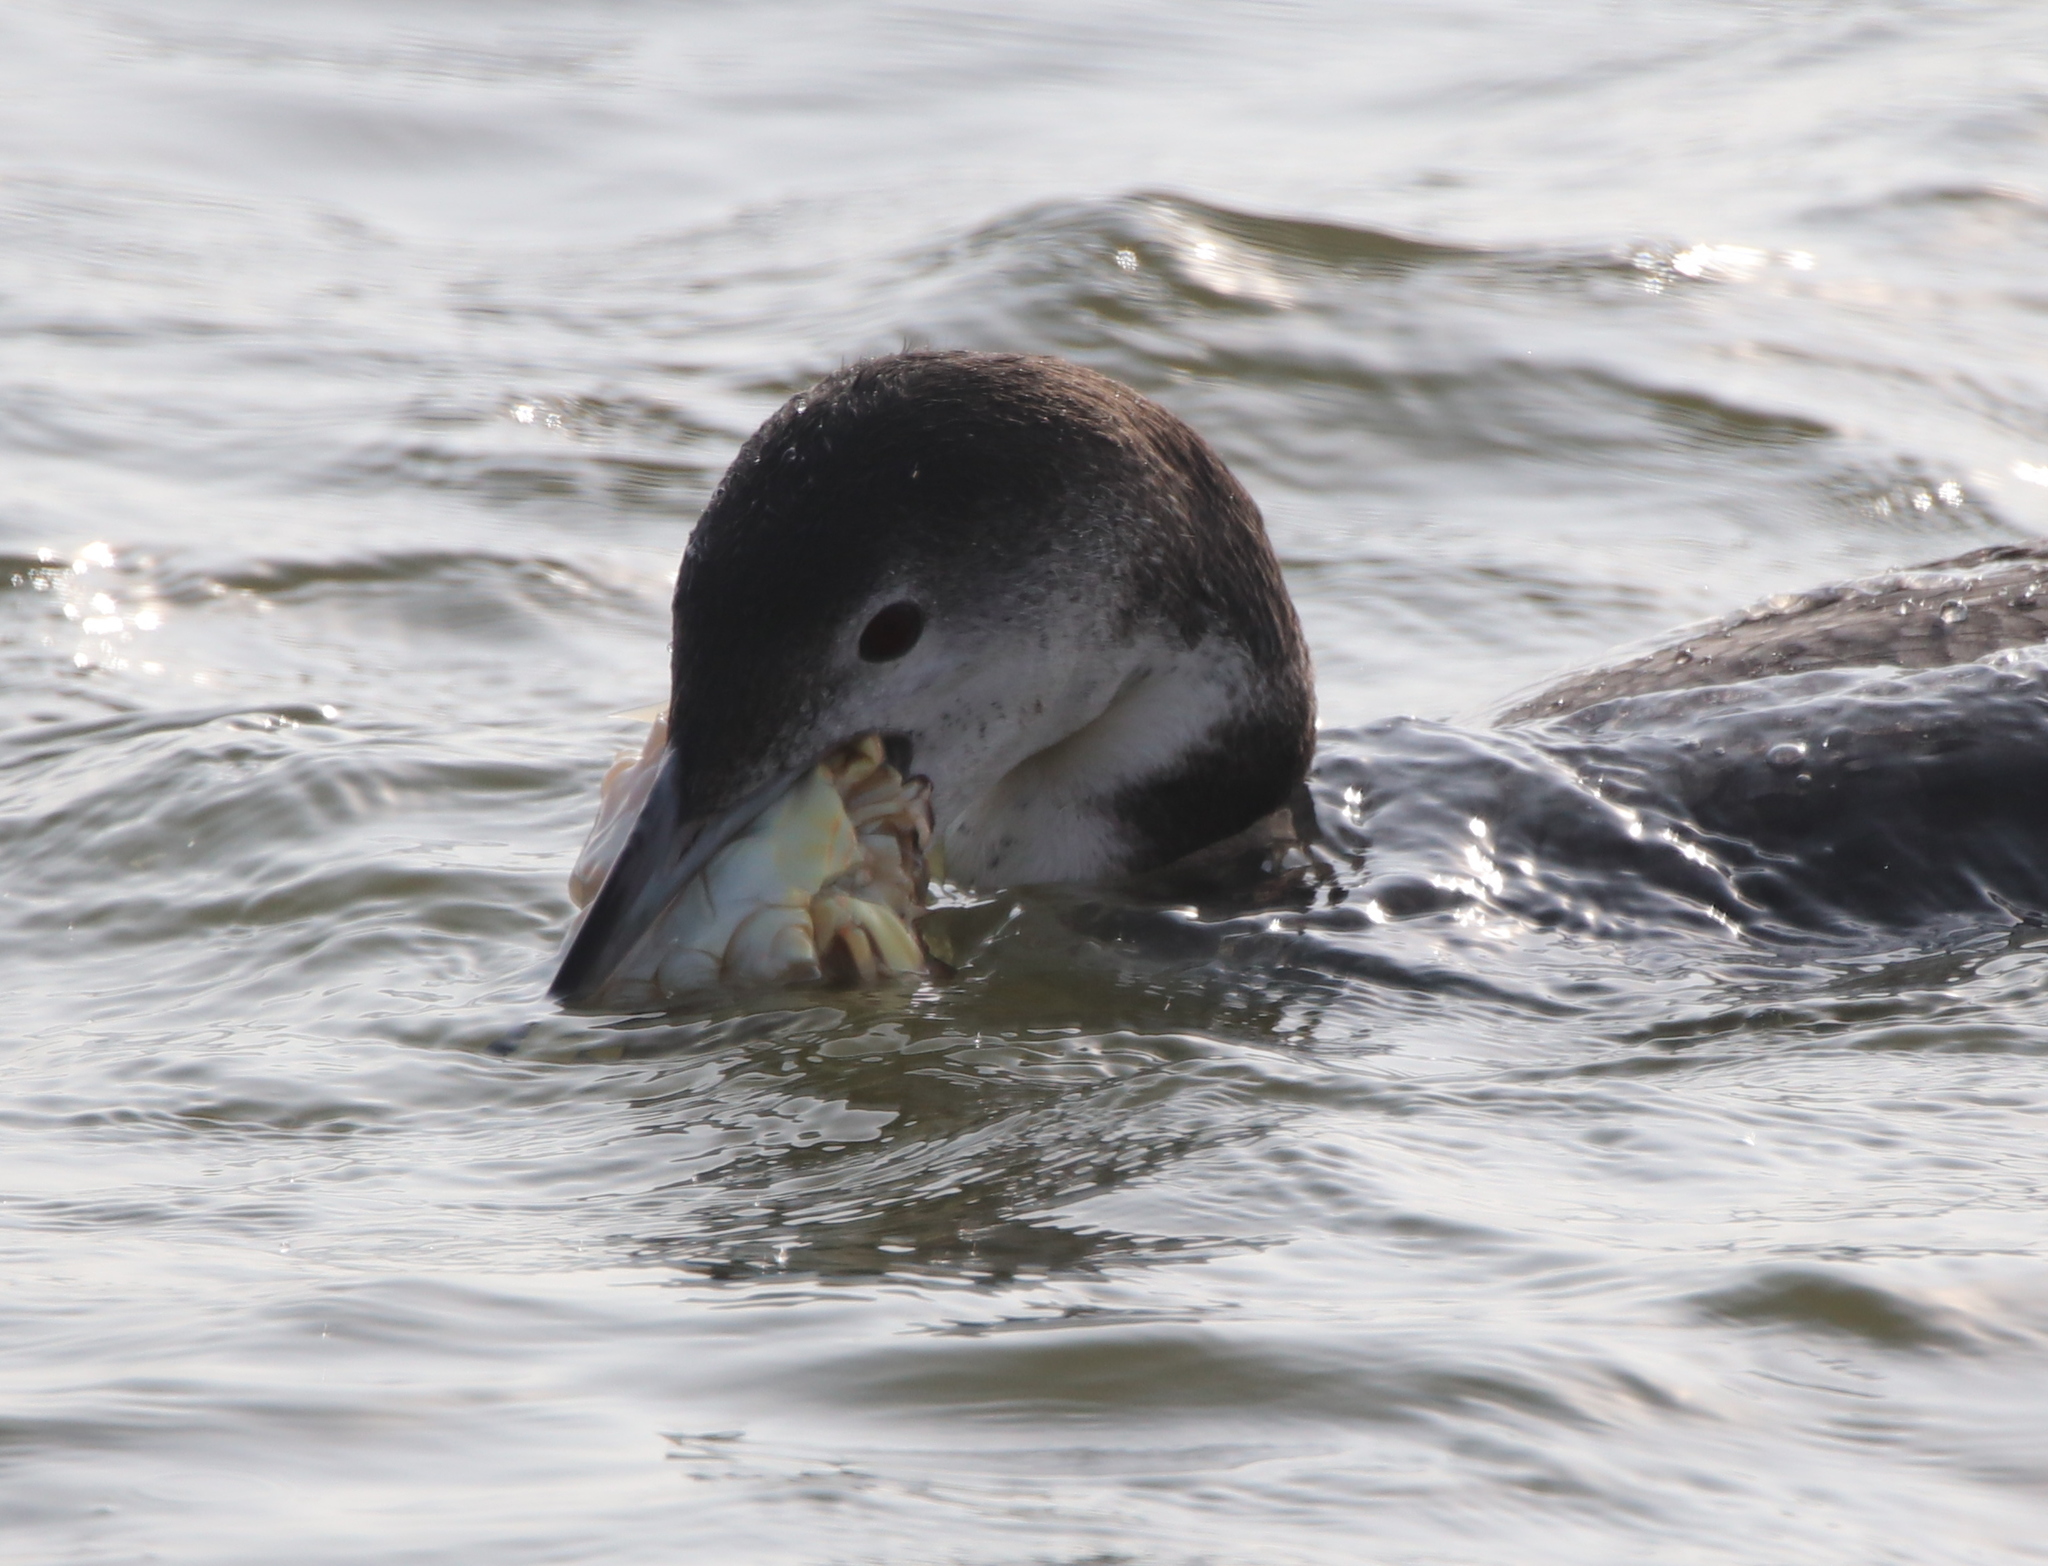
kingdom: Animalia
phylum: Chordata
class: Aves
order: Gaviiformes
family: Gaviidae
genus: Gavia
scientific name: Gavia immer
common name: Common loon
